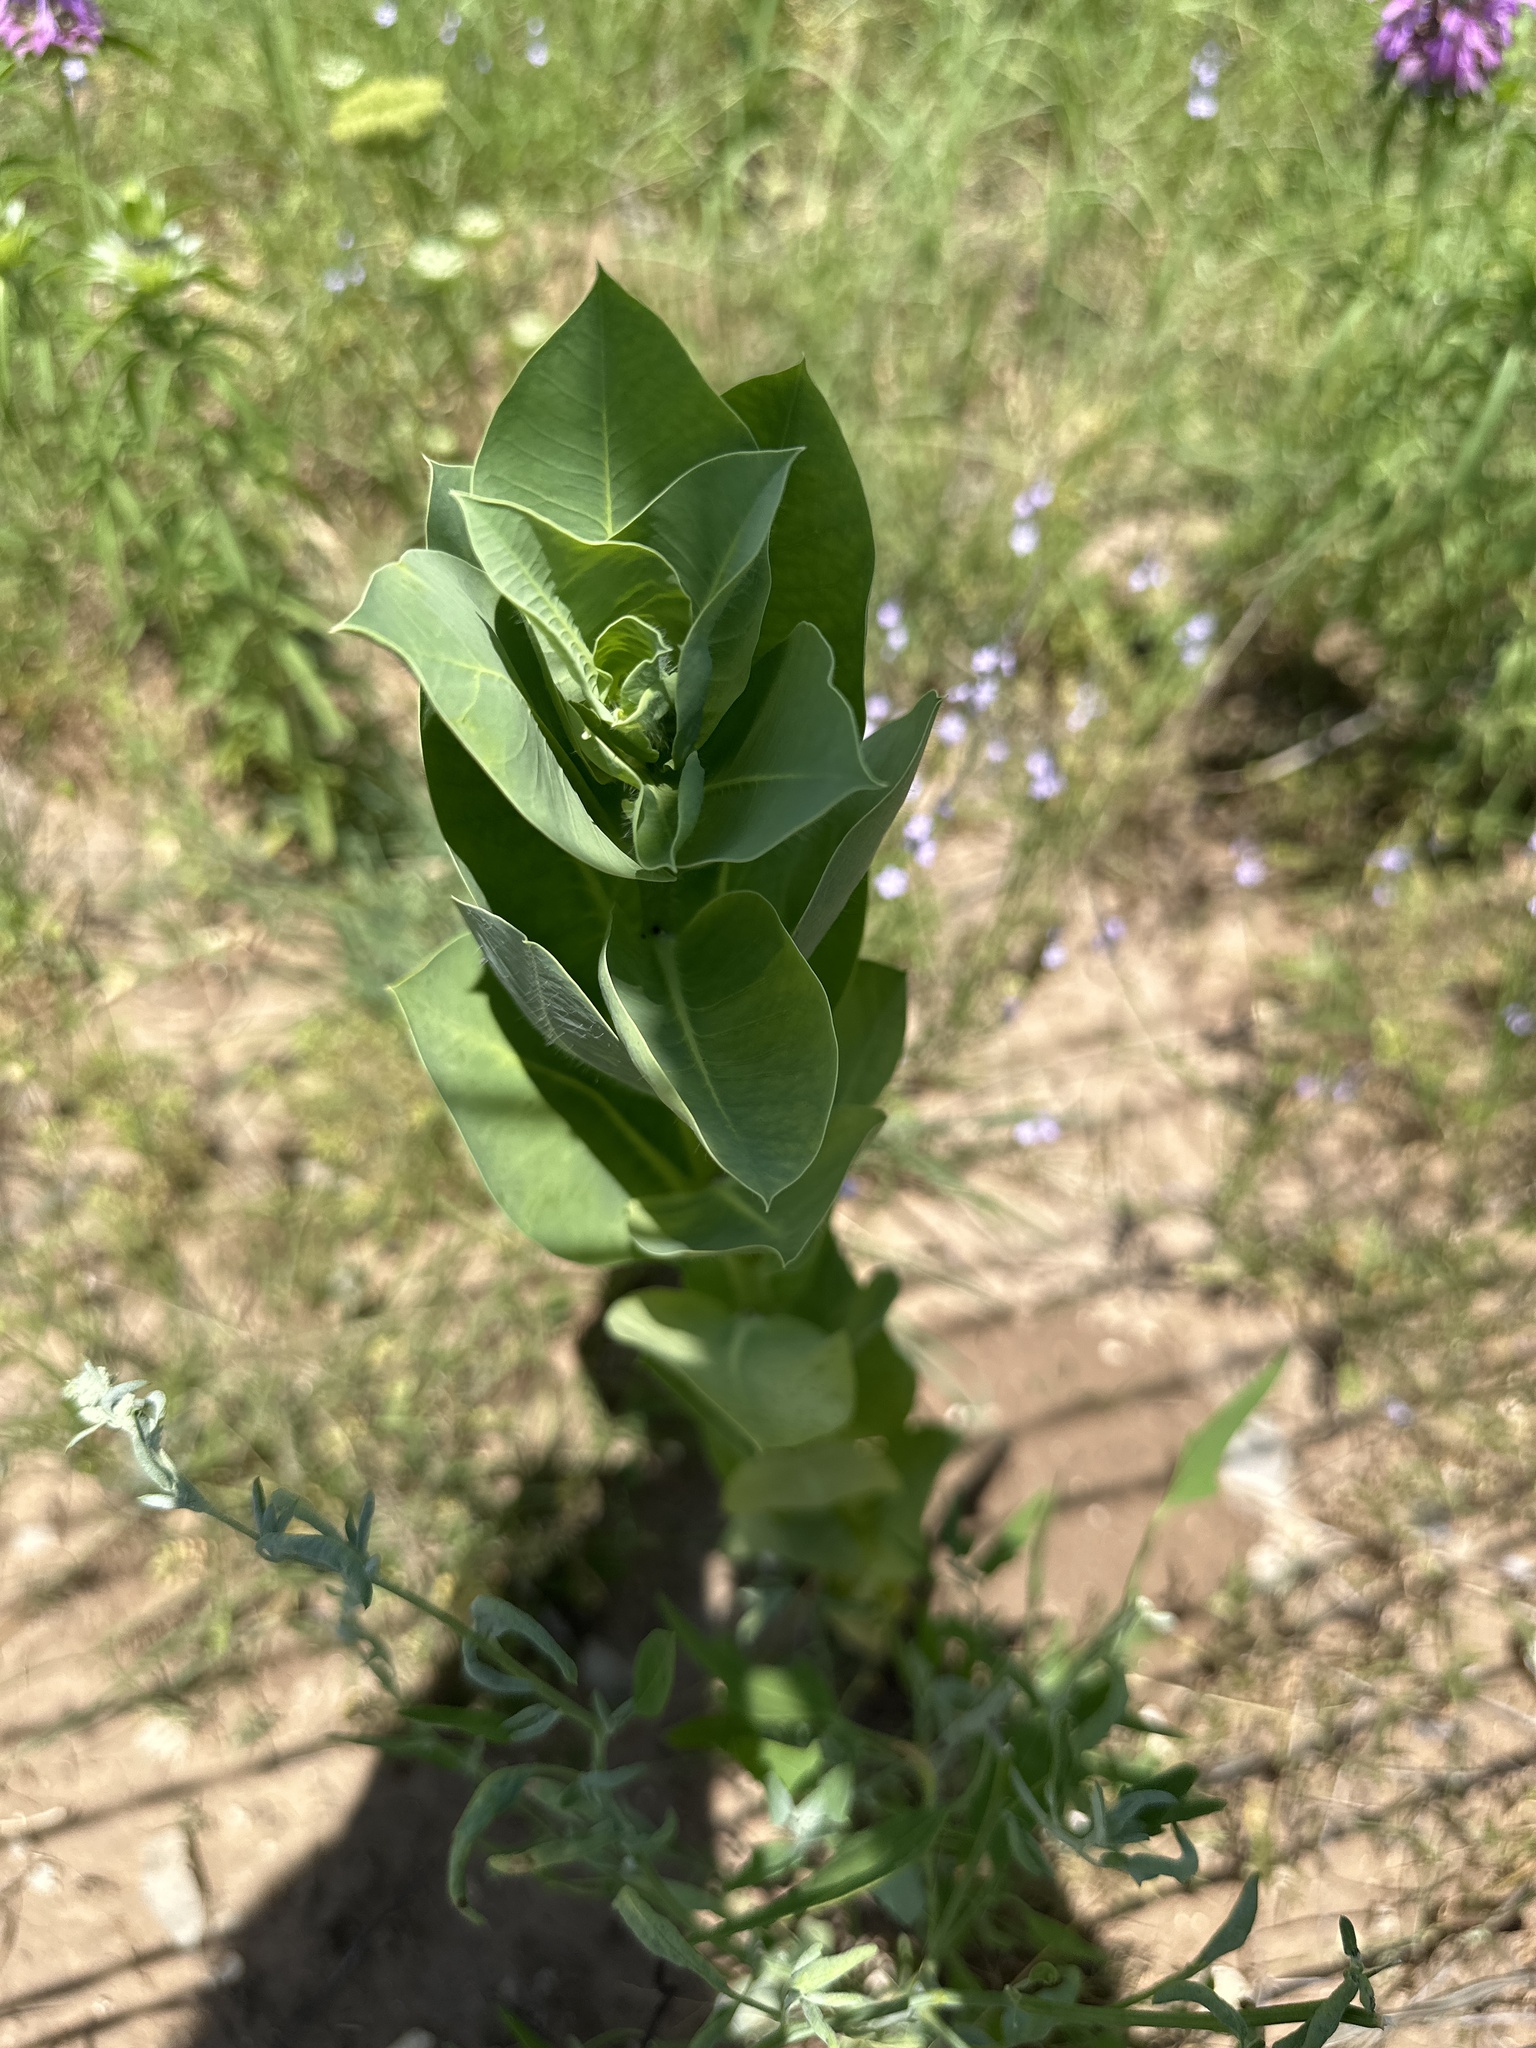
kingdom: Plantae
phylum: Tracheophyta
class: Magnoliopsida
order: Malpighiales
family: Euphorbiaceae
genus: Euphorbia
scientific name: Euphorbia marginata
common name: Ghostweed
